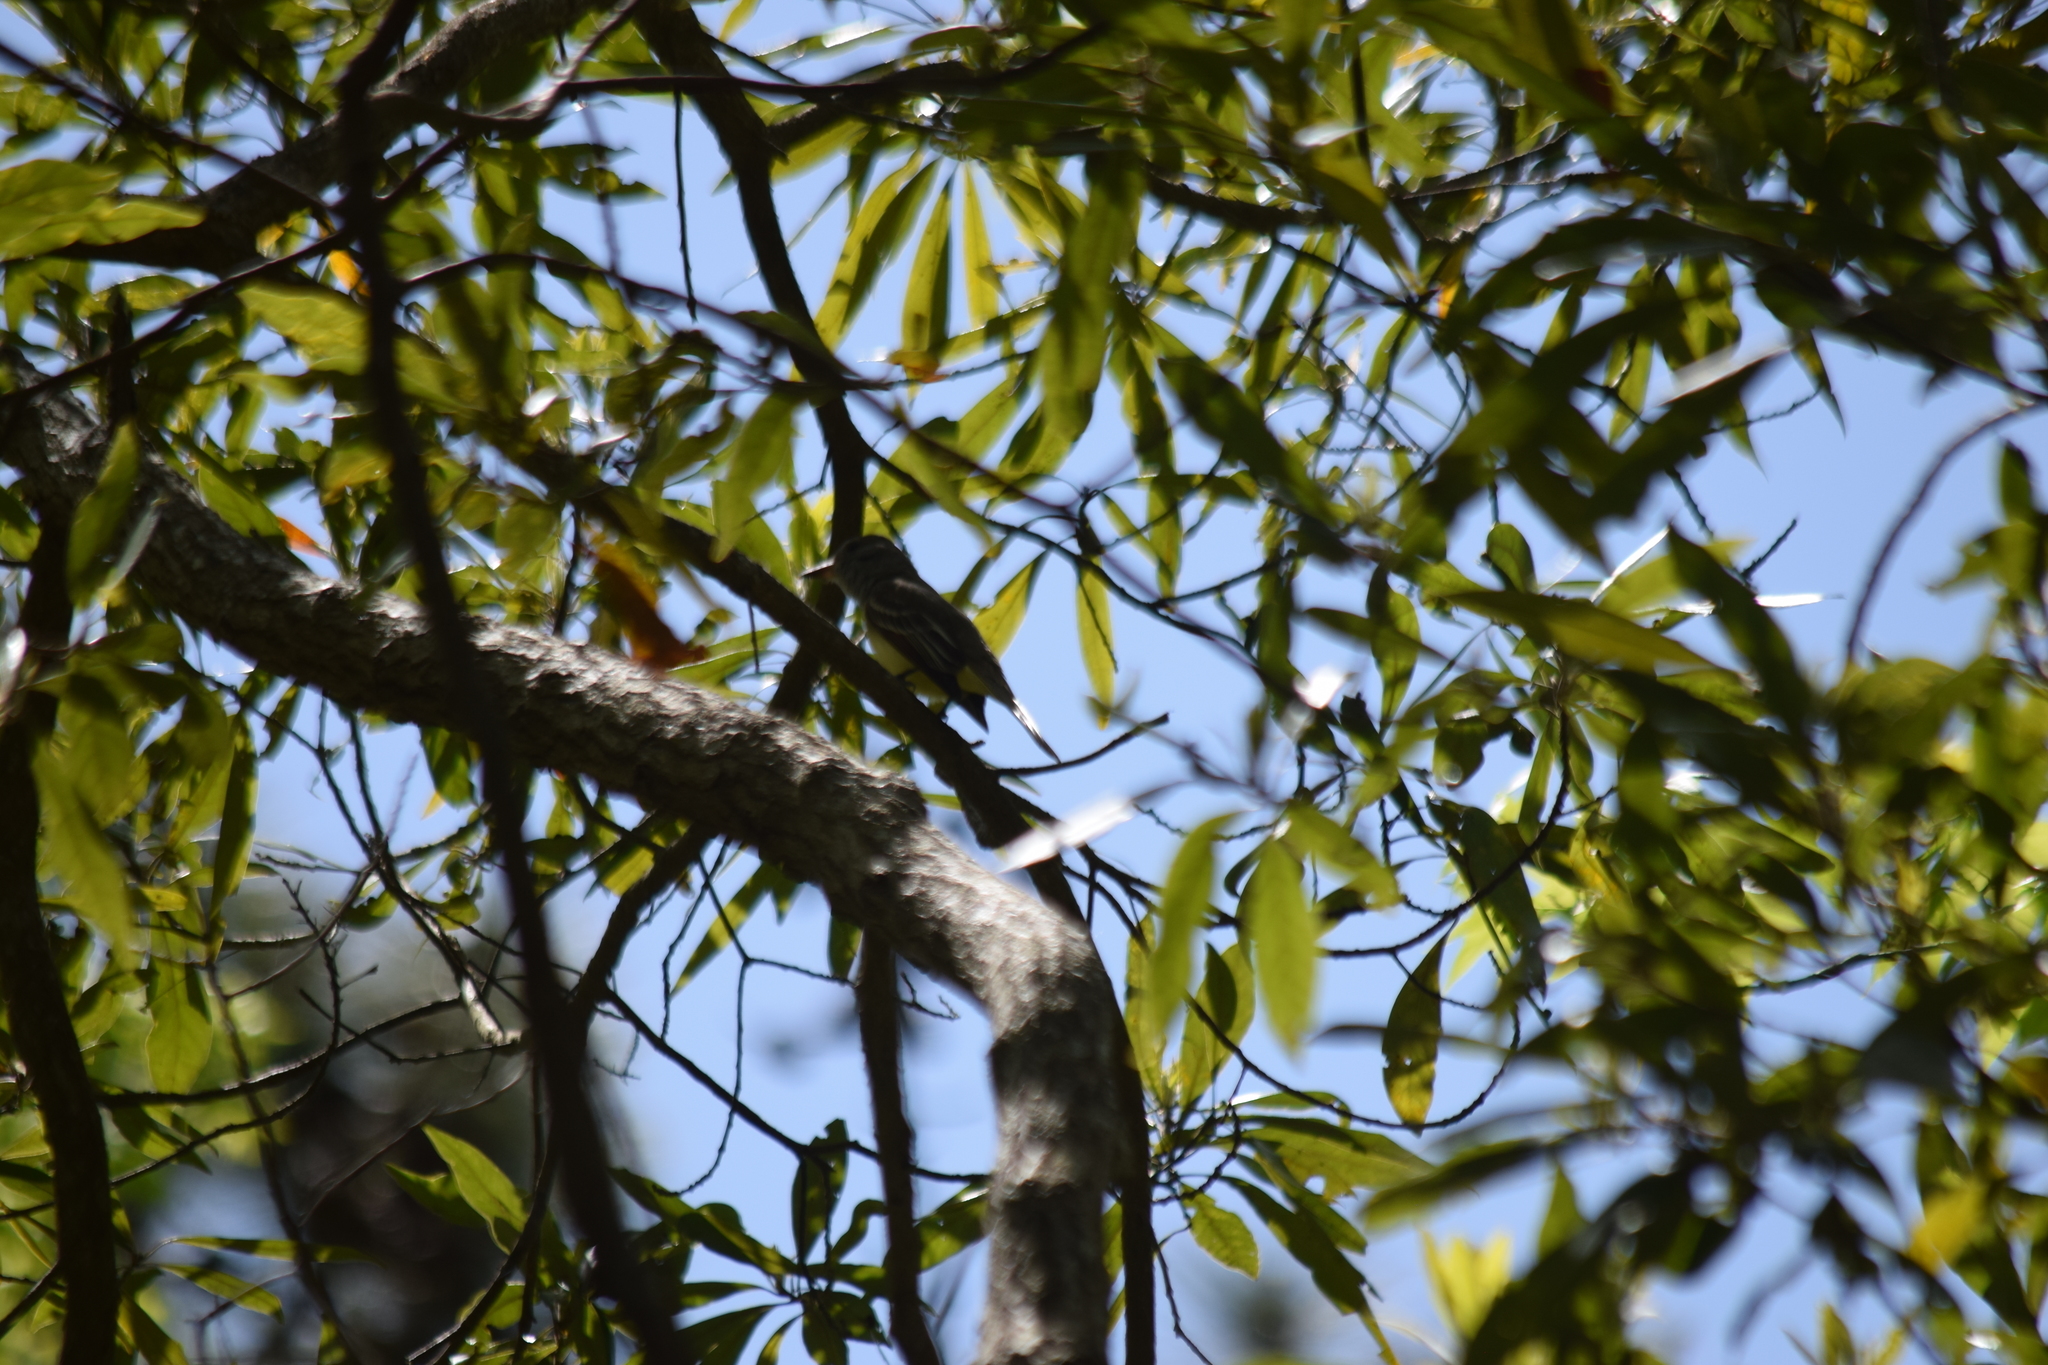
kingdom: Animalia
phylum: Chordata
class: Aves
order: Passeriformes
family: Tyrannidae
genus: Myiarchus
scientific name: Myiarchus crinitus
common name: Great crested flycatcher
